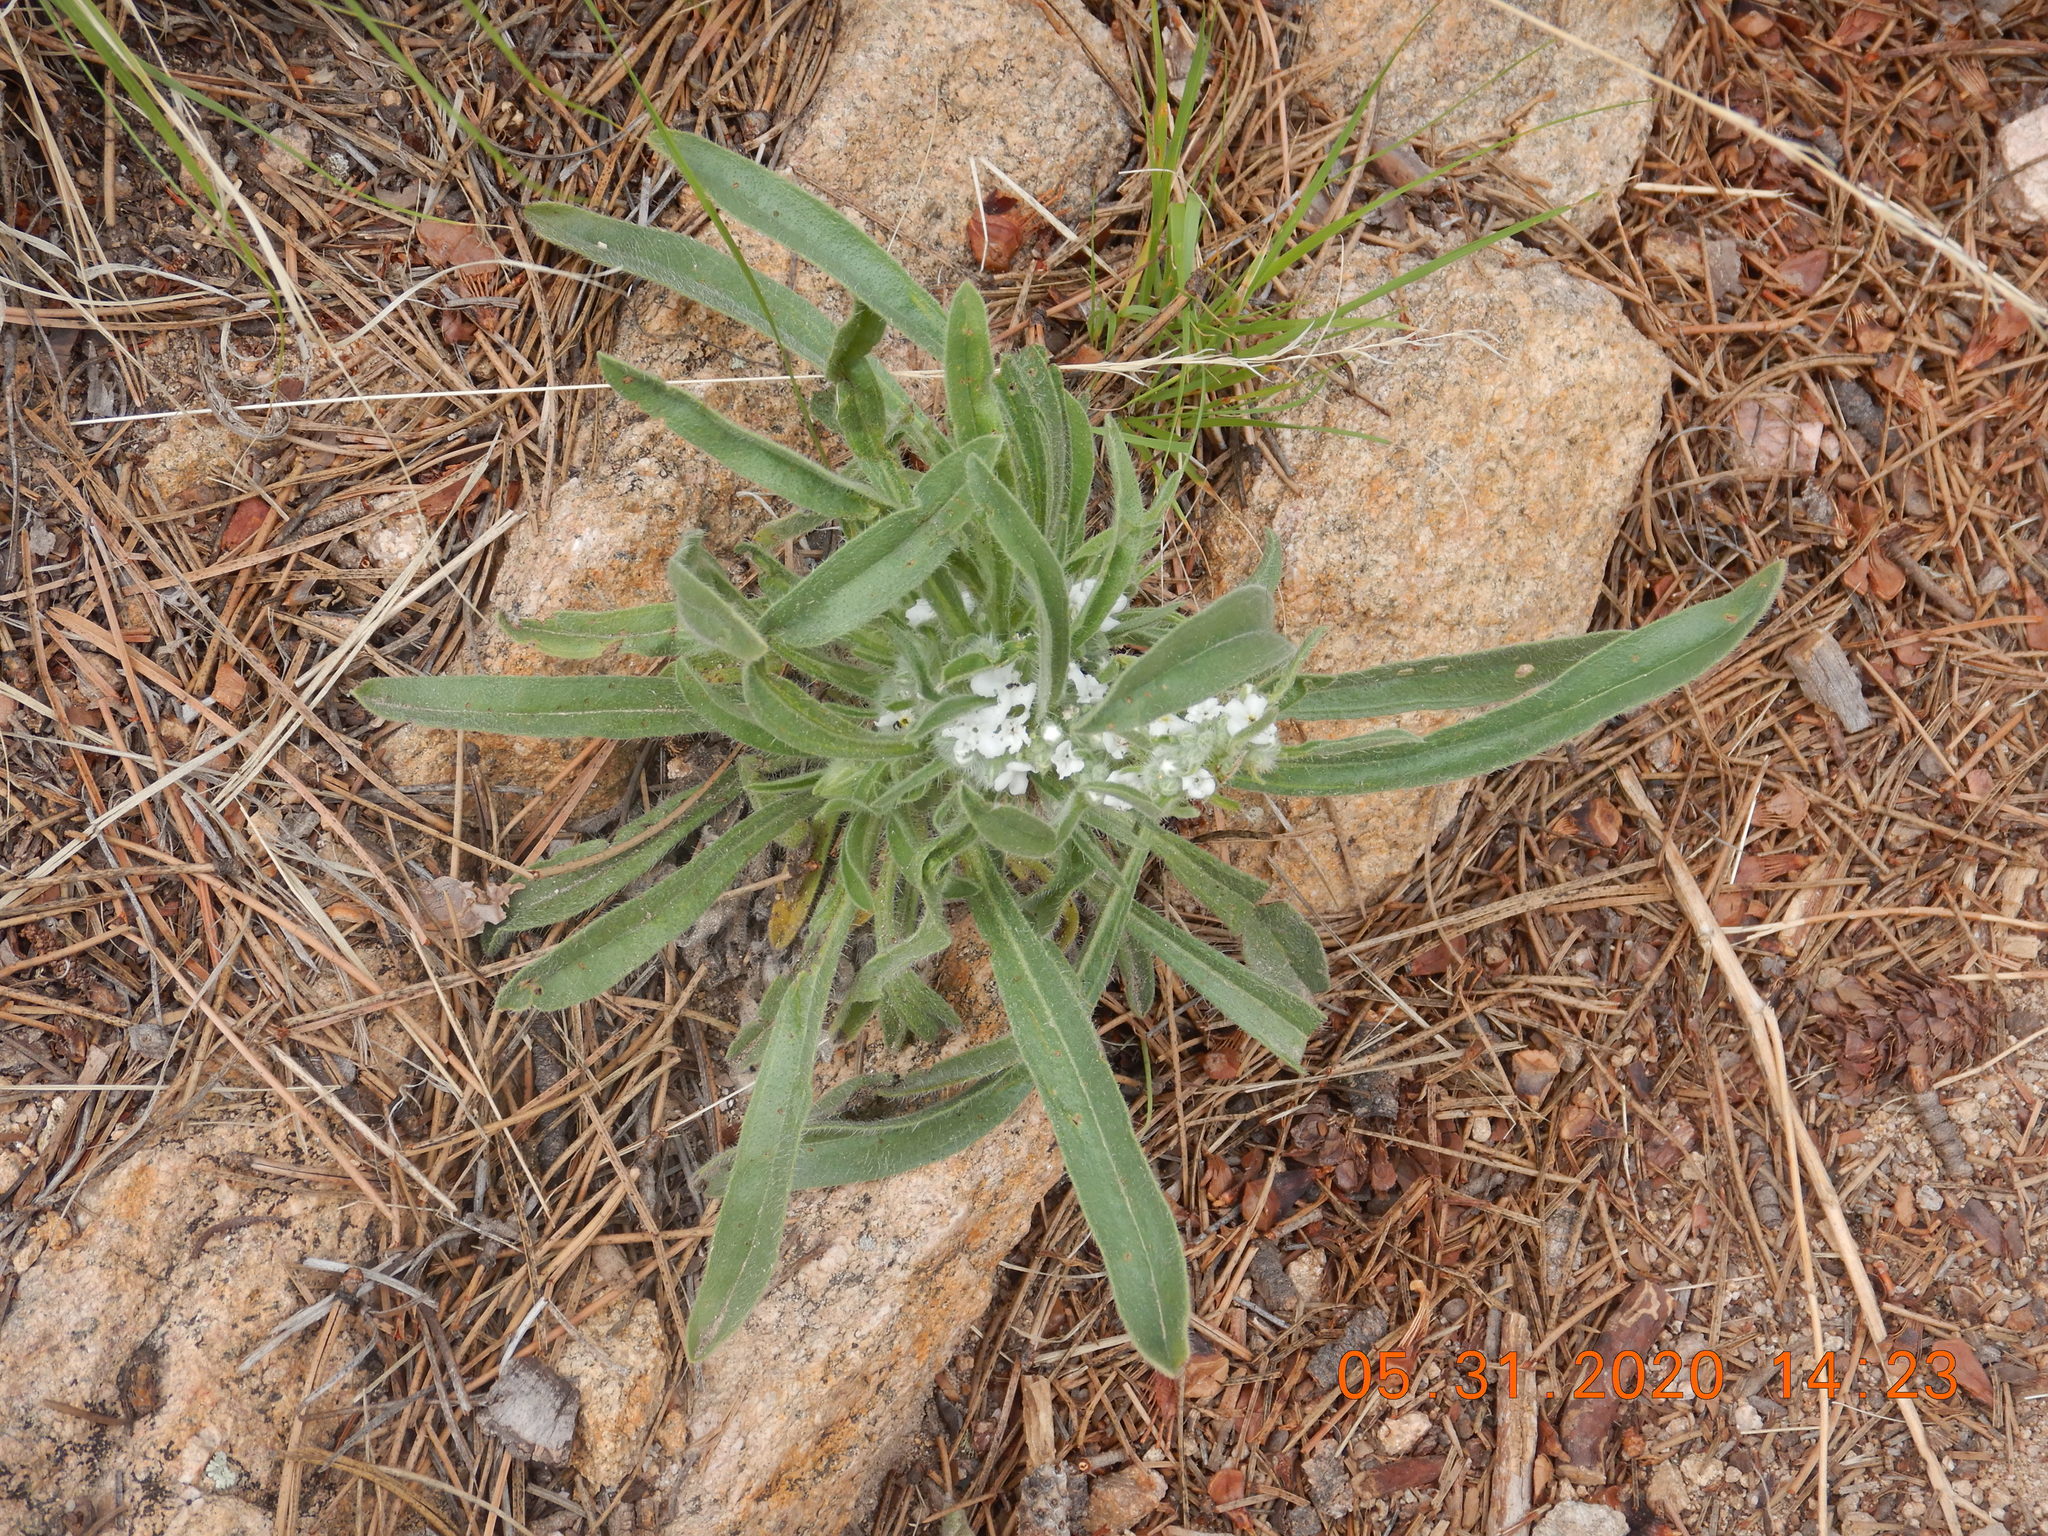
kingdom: Plantae
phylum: Tracheophyta
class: Magnoliopsida
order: Boraginales
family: Boraginaceae
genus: Oreocarya
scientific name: Oreocarya virgata
